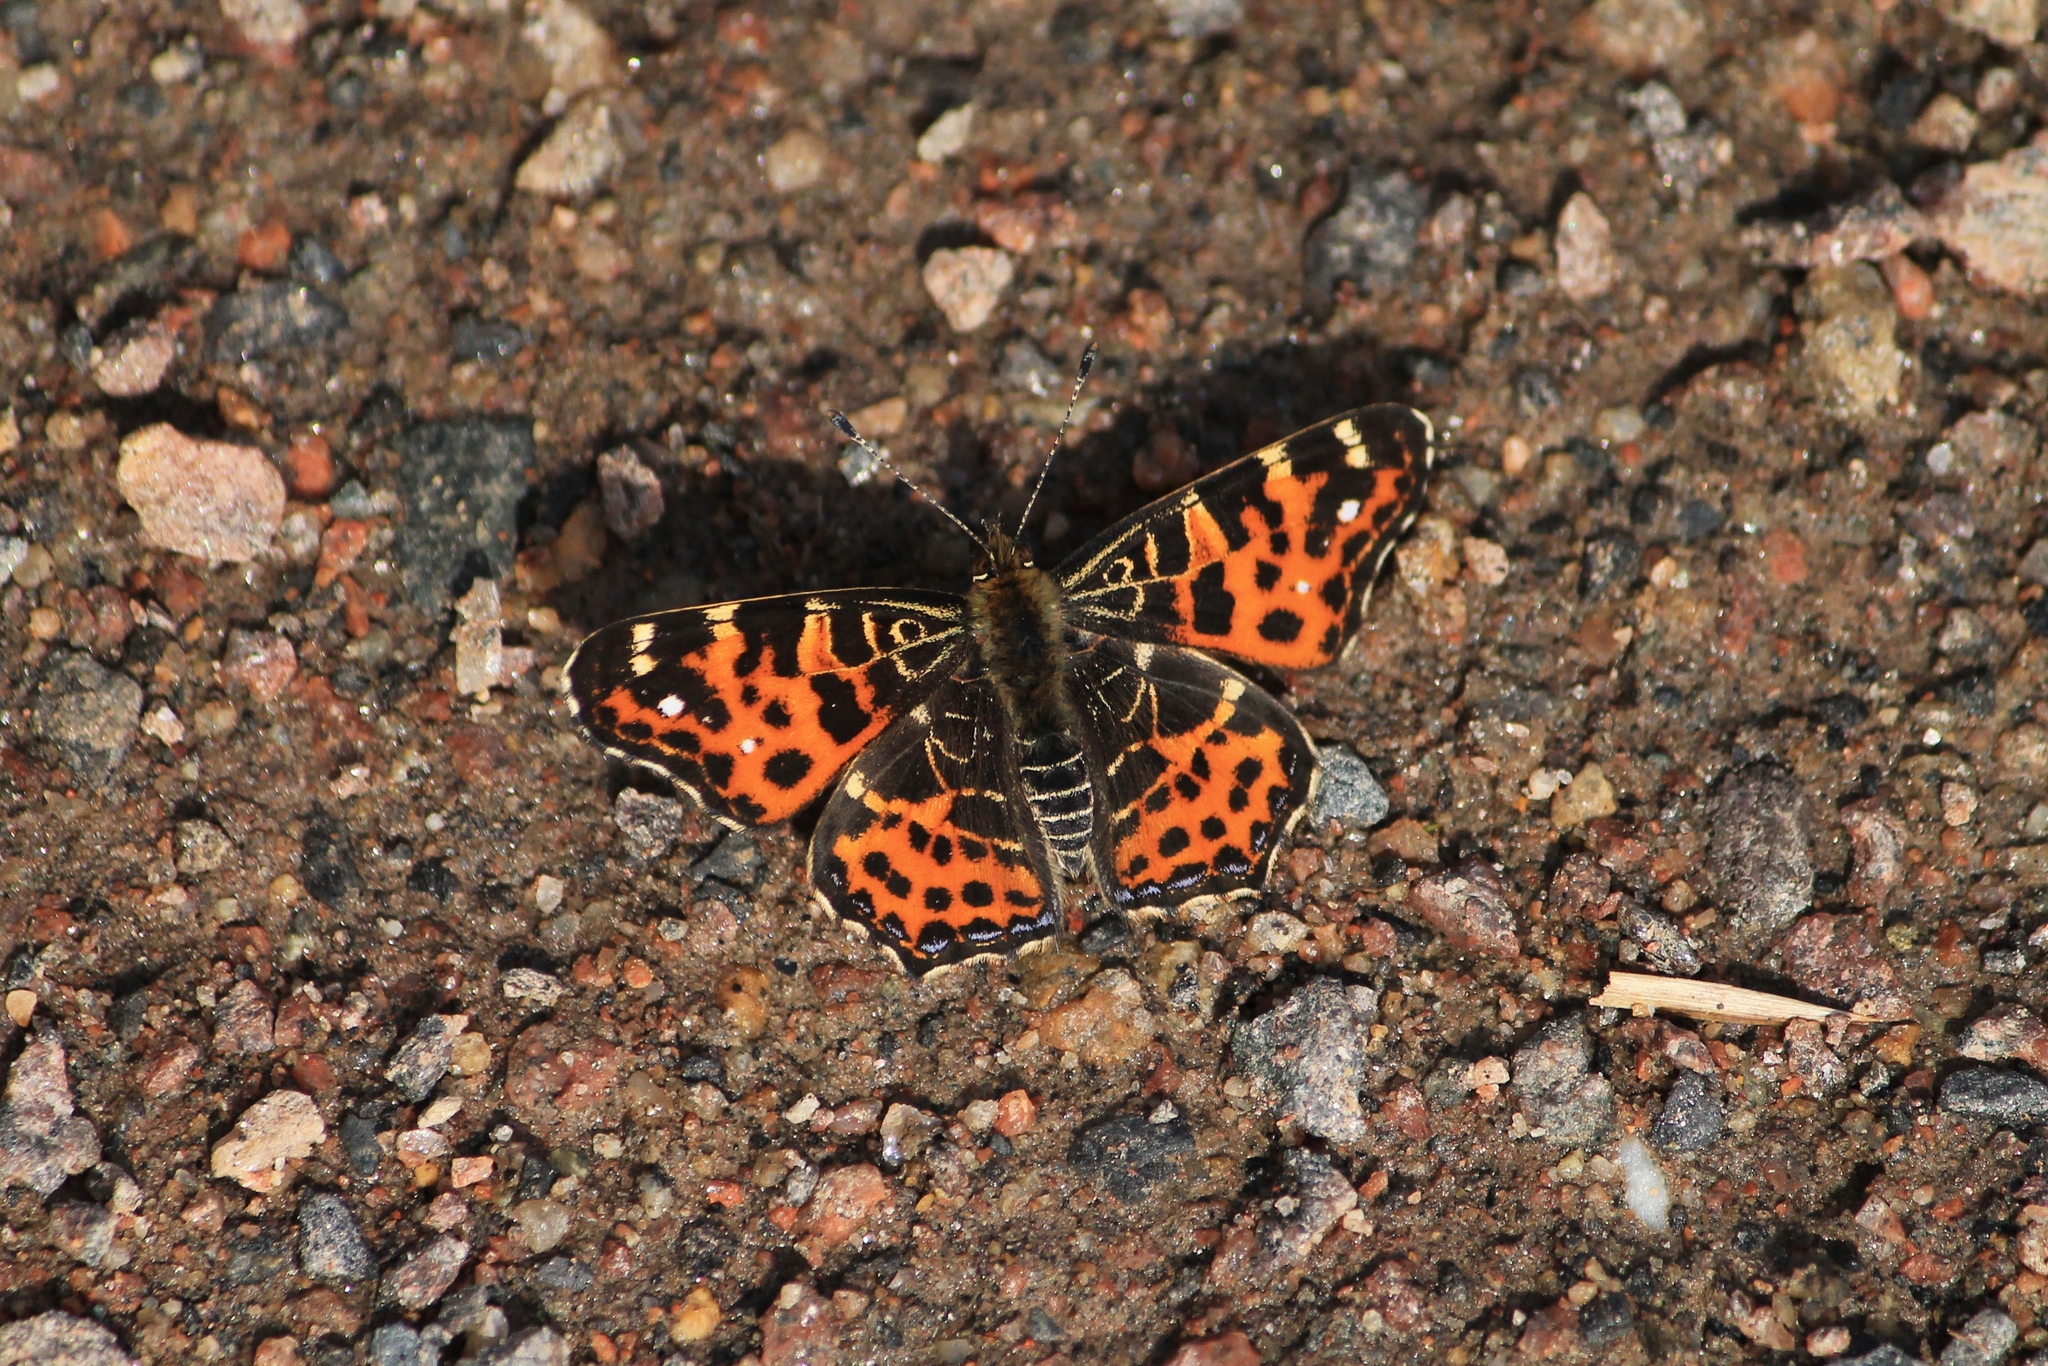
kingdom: Animalia
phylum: Arthropoda
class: Insecta
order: Lepidoptera
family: Nymphalidae
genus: Araschnia
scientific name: Araschnia levana
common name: Map butterfly
